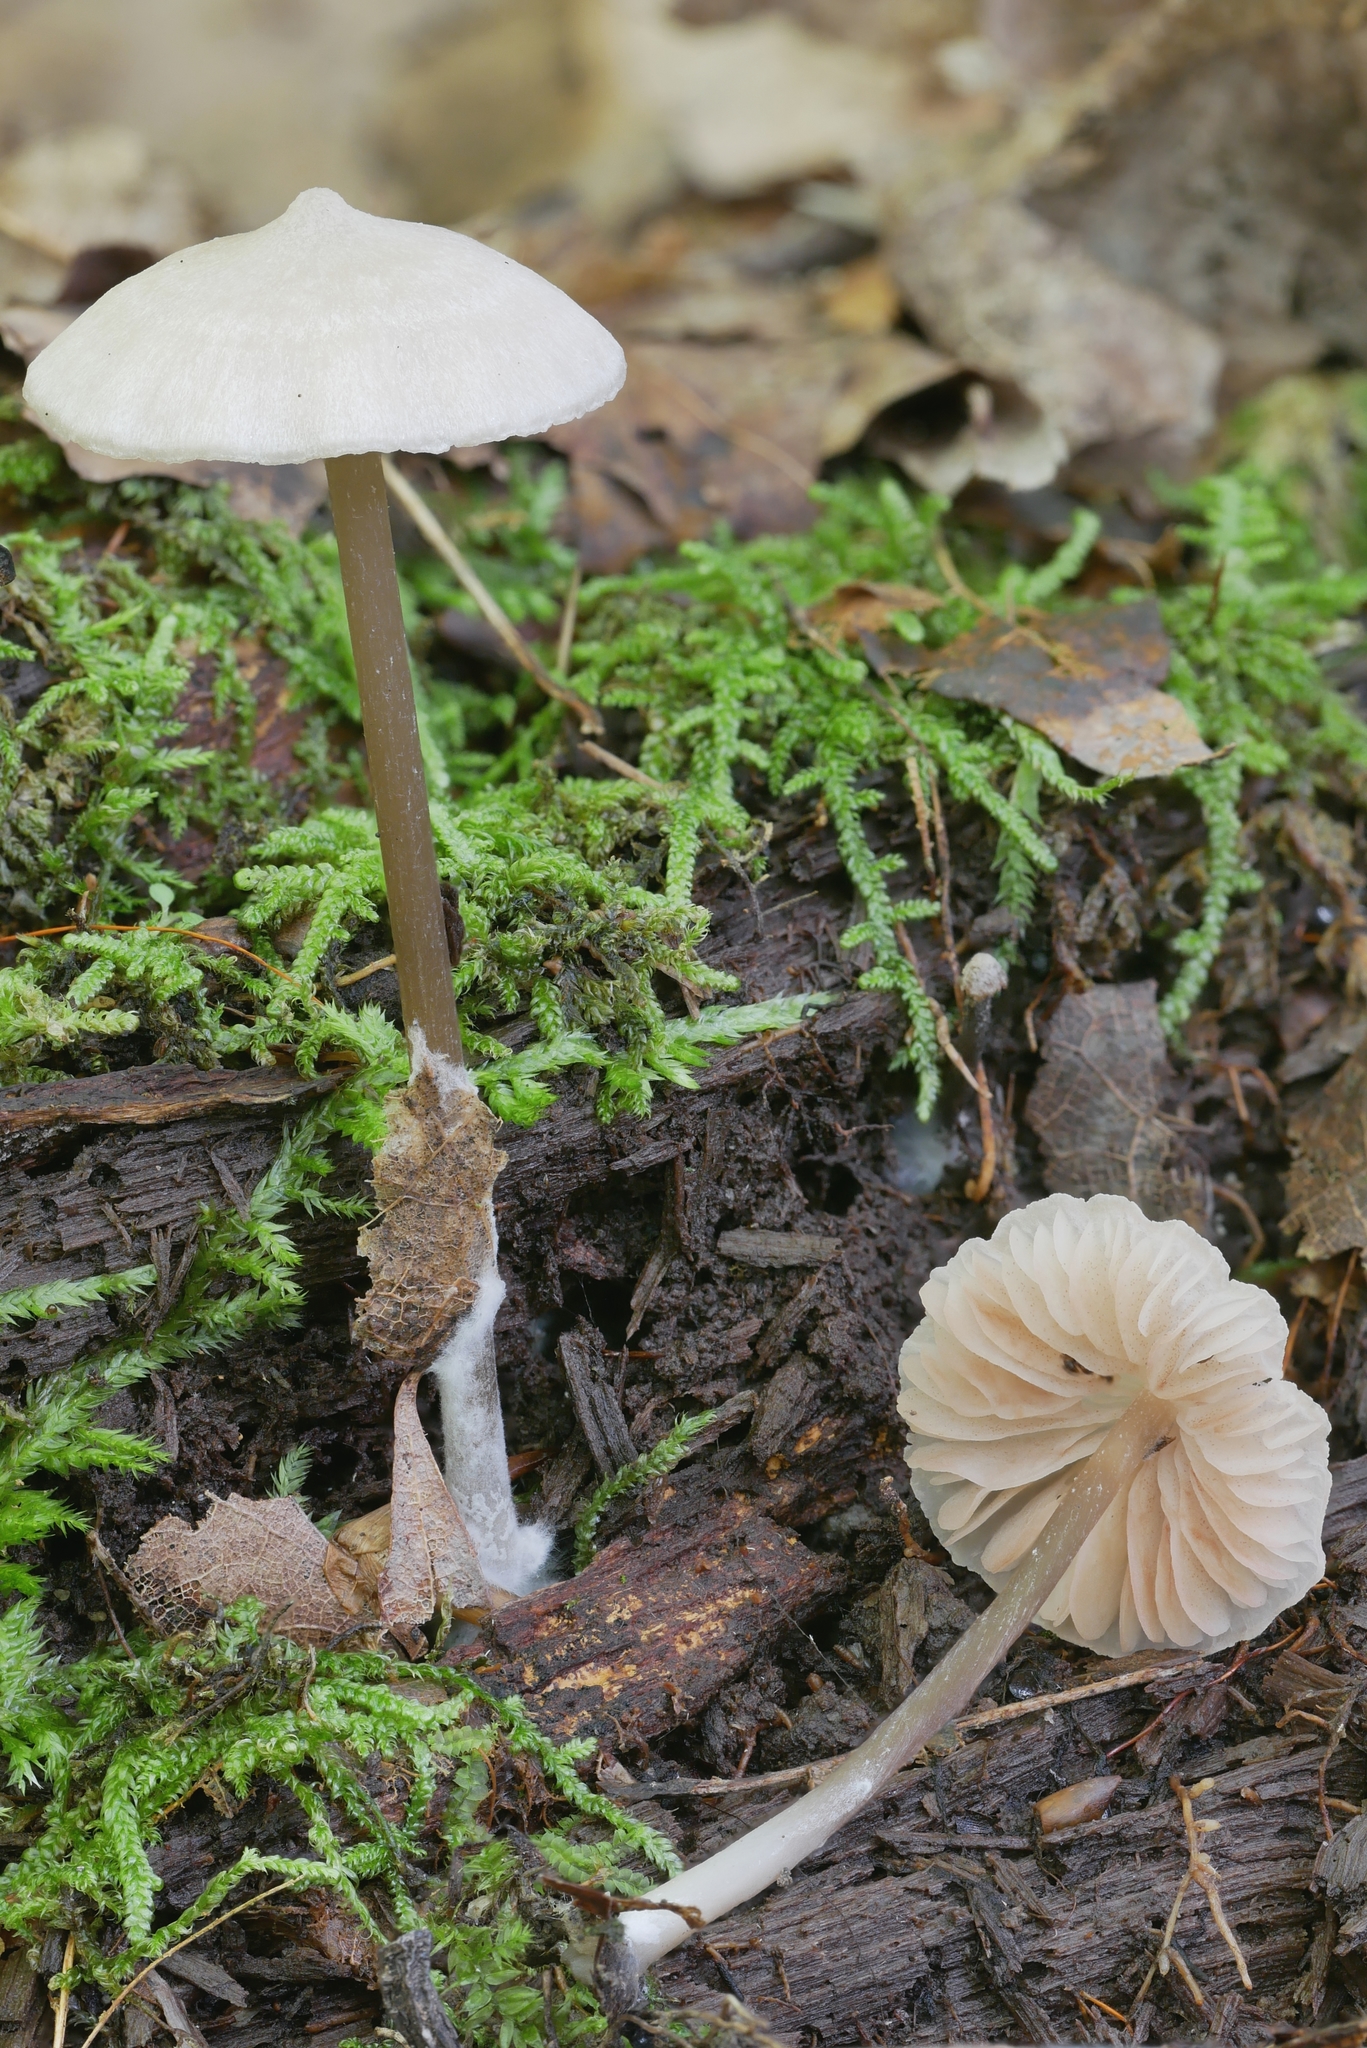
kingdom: Fungi
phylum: Basidiomycota
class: Agaricomycetes
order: Agaricales
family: Entolomataceae
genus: Entoloma
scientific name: Entoloma alboumbonatum
